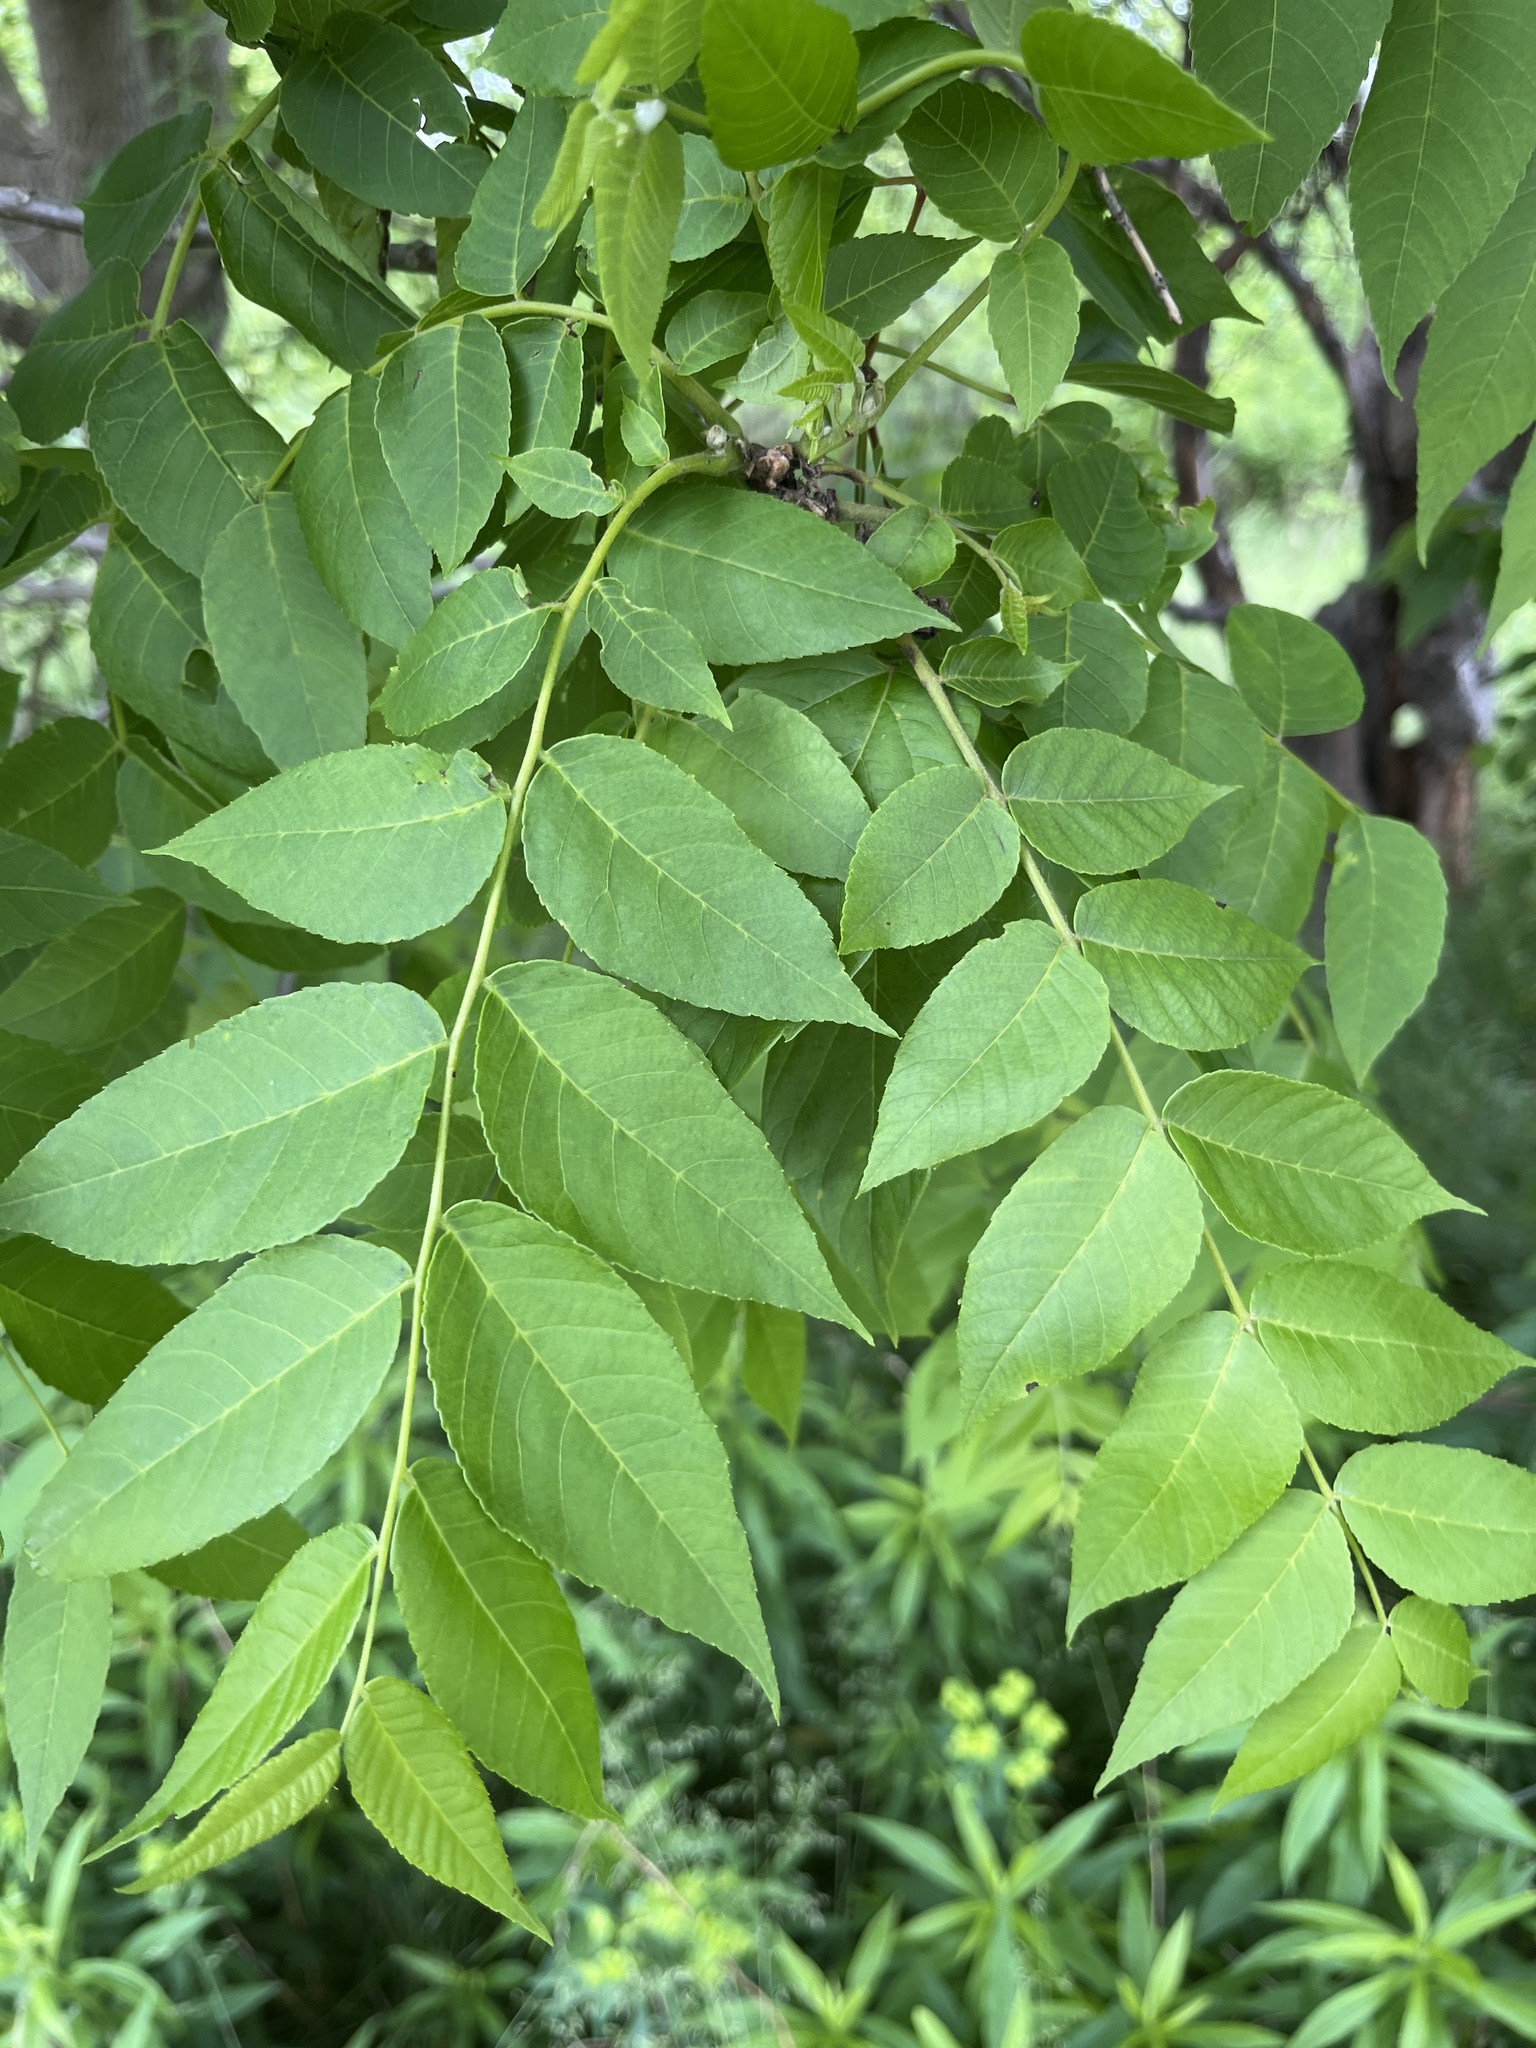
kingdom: Plantae
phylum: Tracheophyta
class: Magnoliopsida
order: Fagales
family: Juglandaceae
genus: Juglans
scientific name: Juglans nigra
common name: Black walnut
